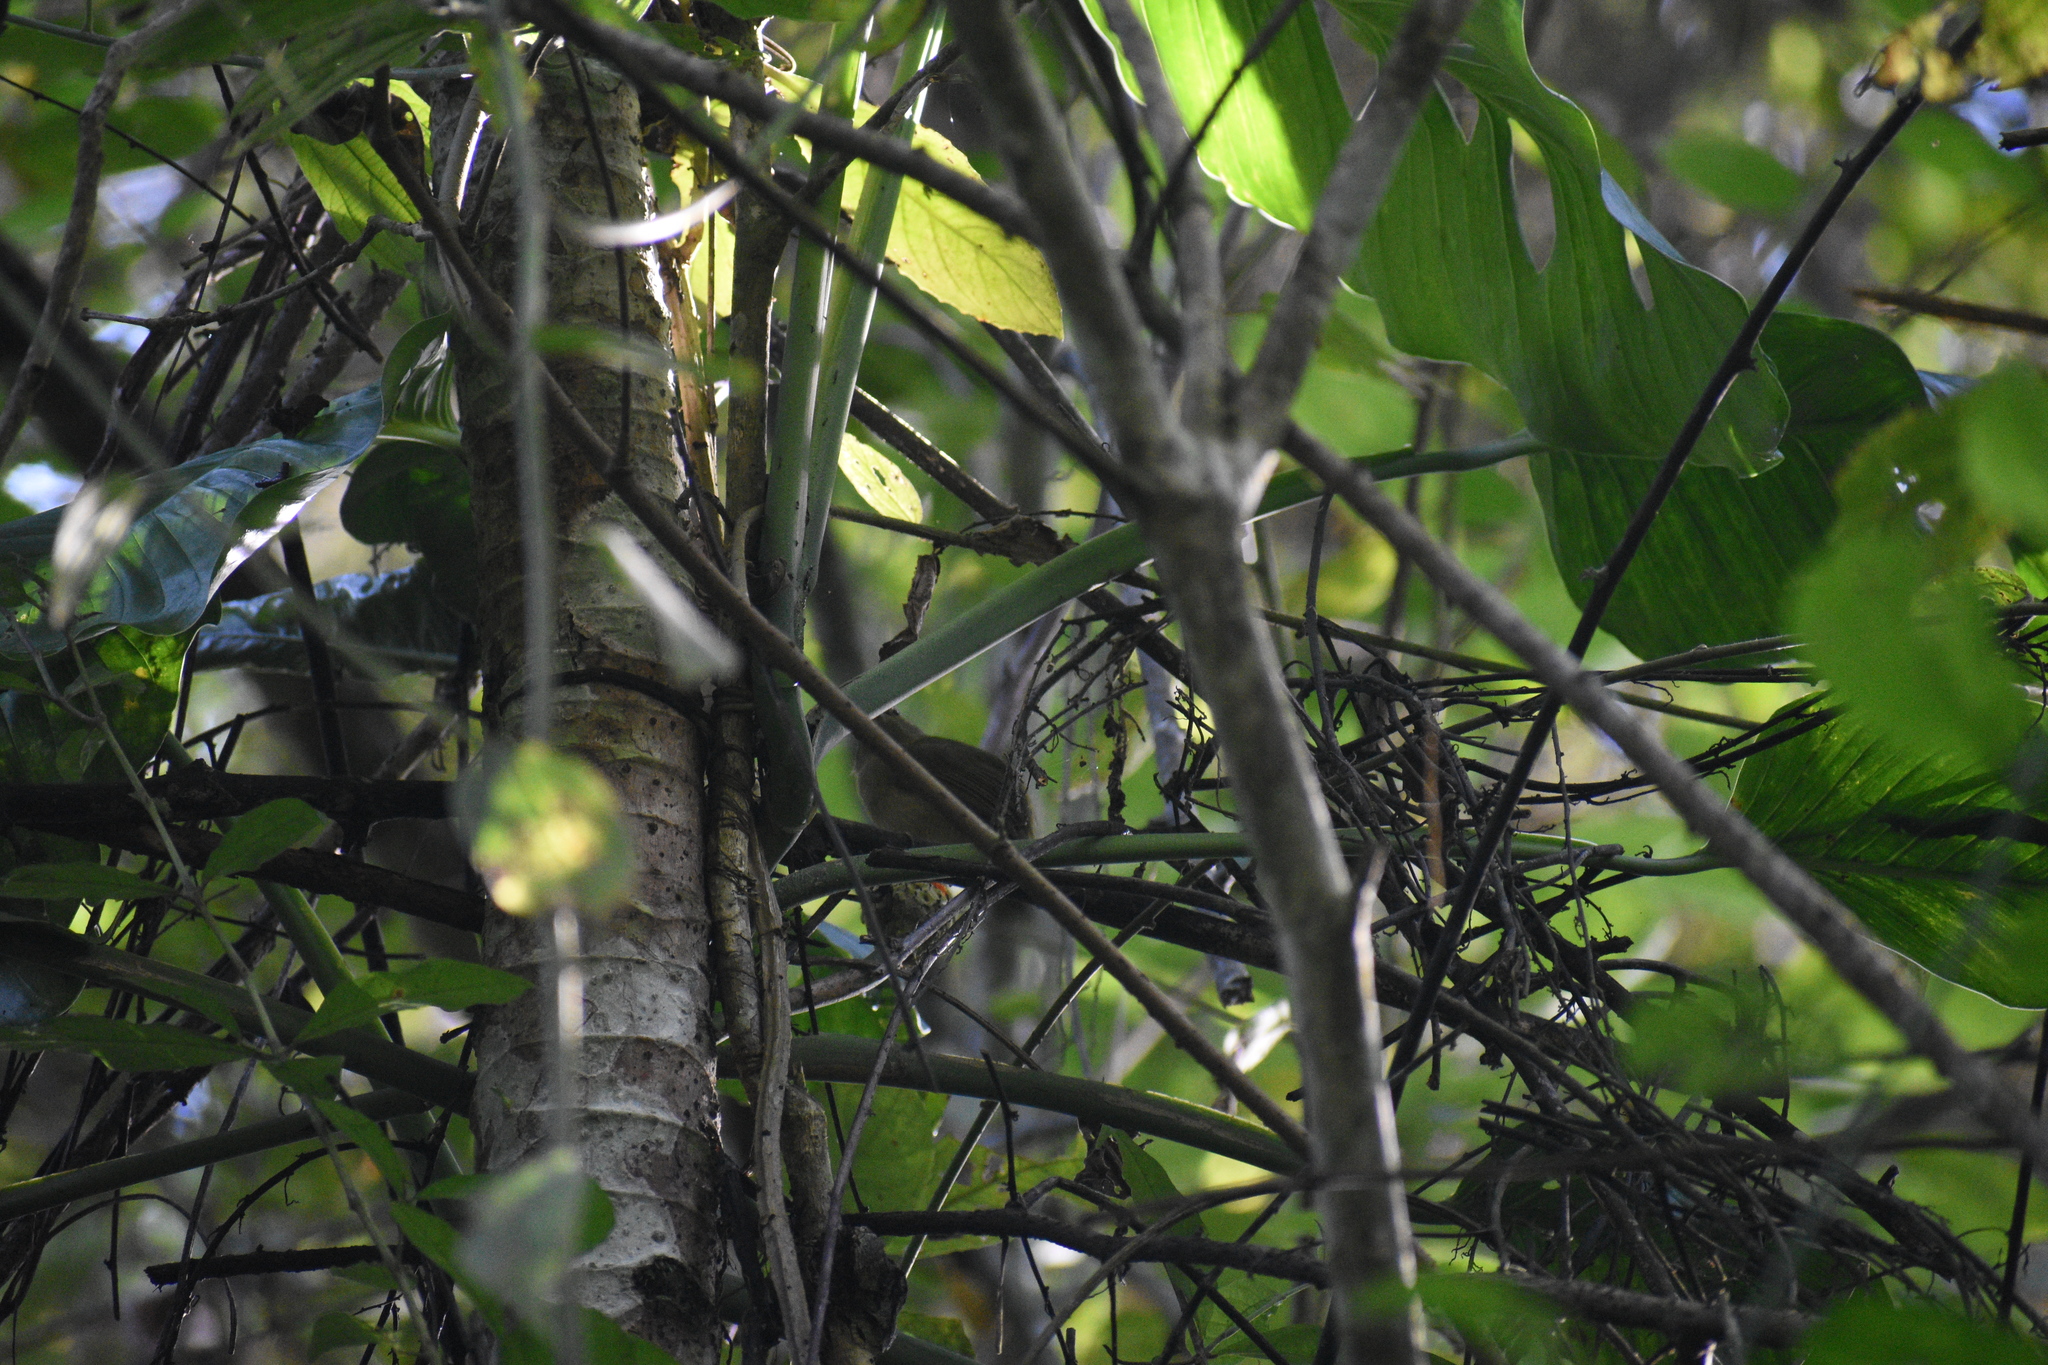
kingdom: Animalia
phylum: Chordata
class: Aves
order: Passeriformes
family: Pipridae
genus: Manacus
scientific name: Manacus manacus
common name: White-bearded manakin
